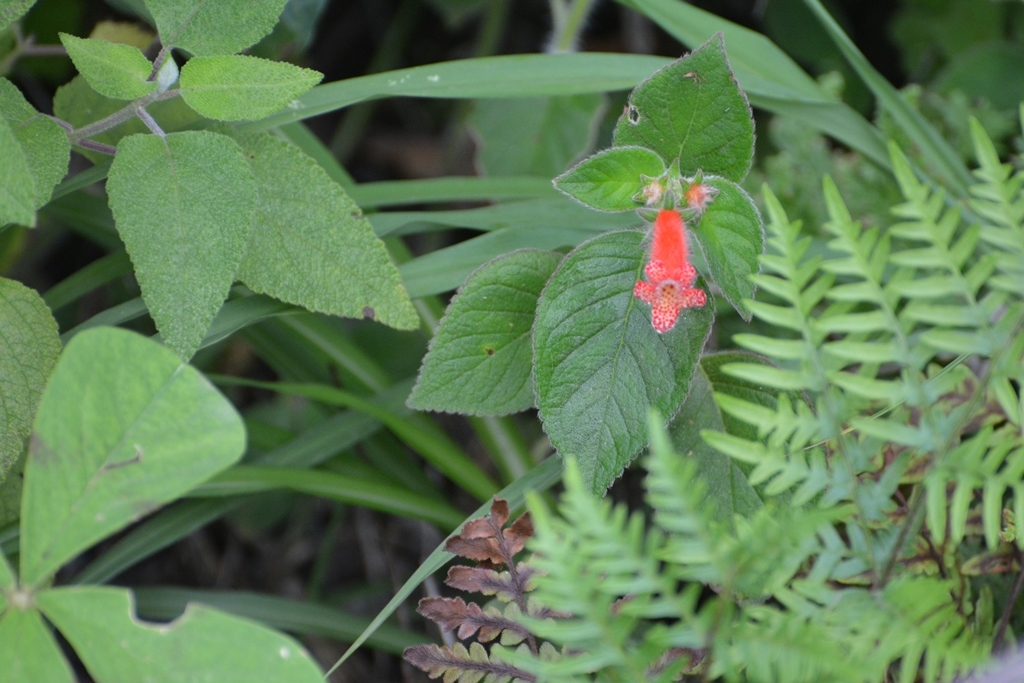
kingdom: Plantae
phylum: Tracheophyta
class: Magnoliopsida
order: Lamiales
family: Gesneriaceae
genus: Kohleria
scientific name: Kohleria rugata
